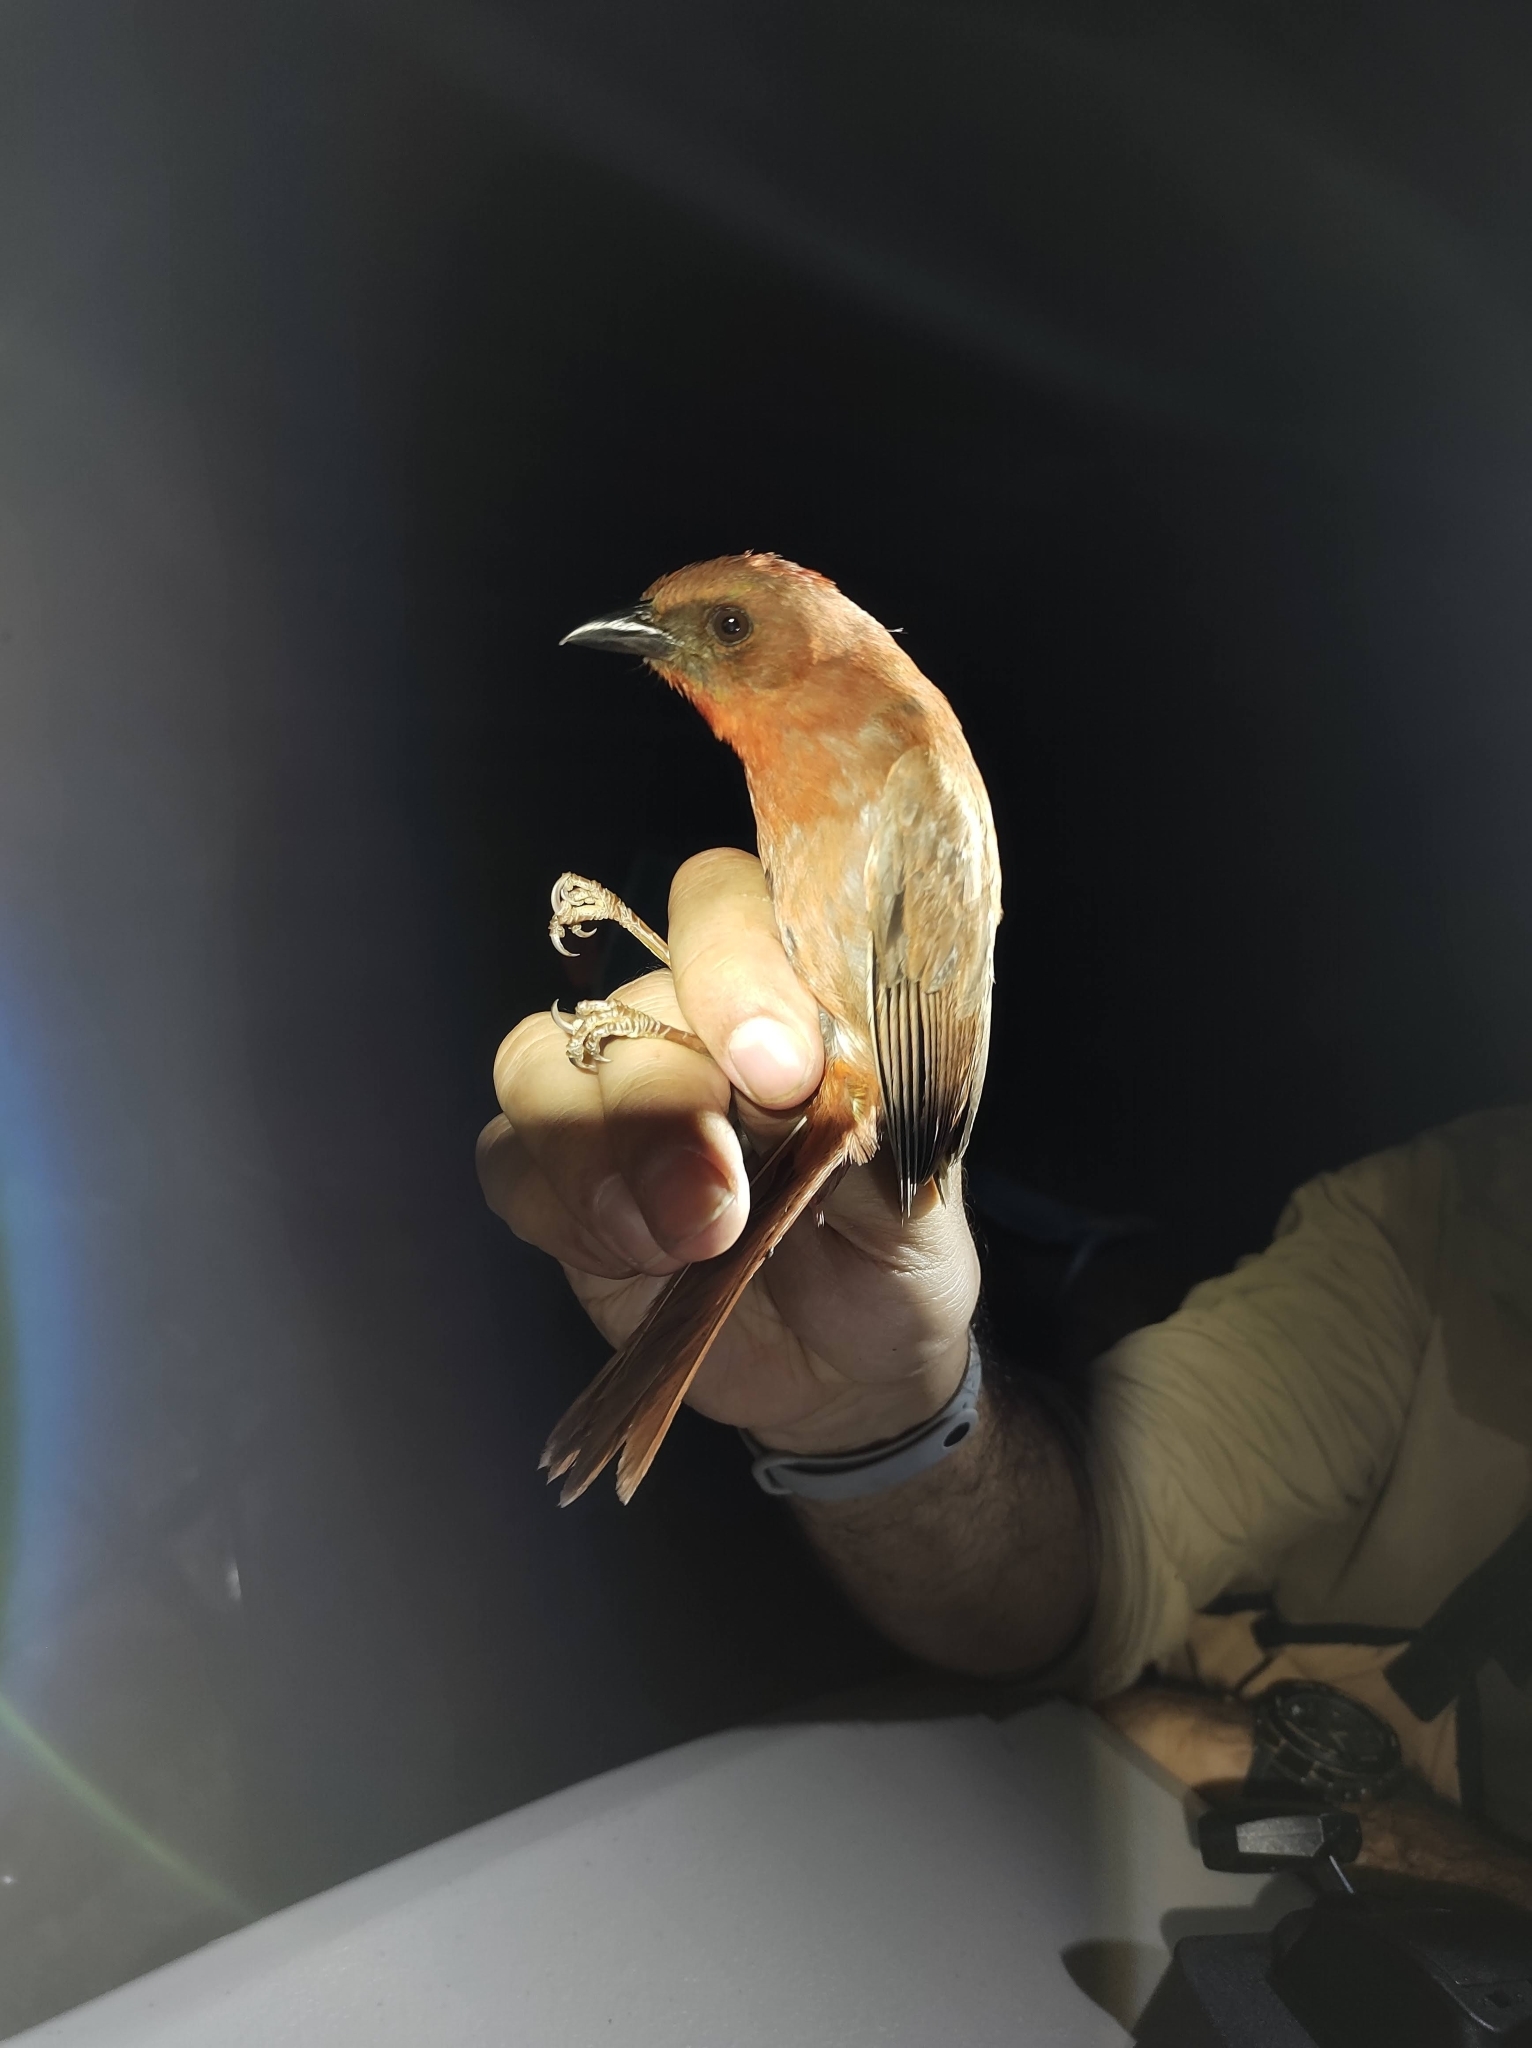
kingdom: Animalia
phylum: Chordata
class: Aves
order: Passeriformes
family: Cardinalidae
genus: Habia
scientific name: Habia fuscicauda
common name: Red-throated ant-tanager
